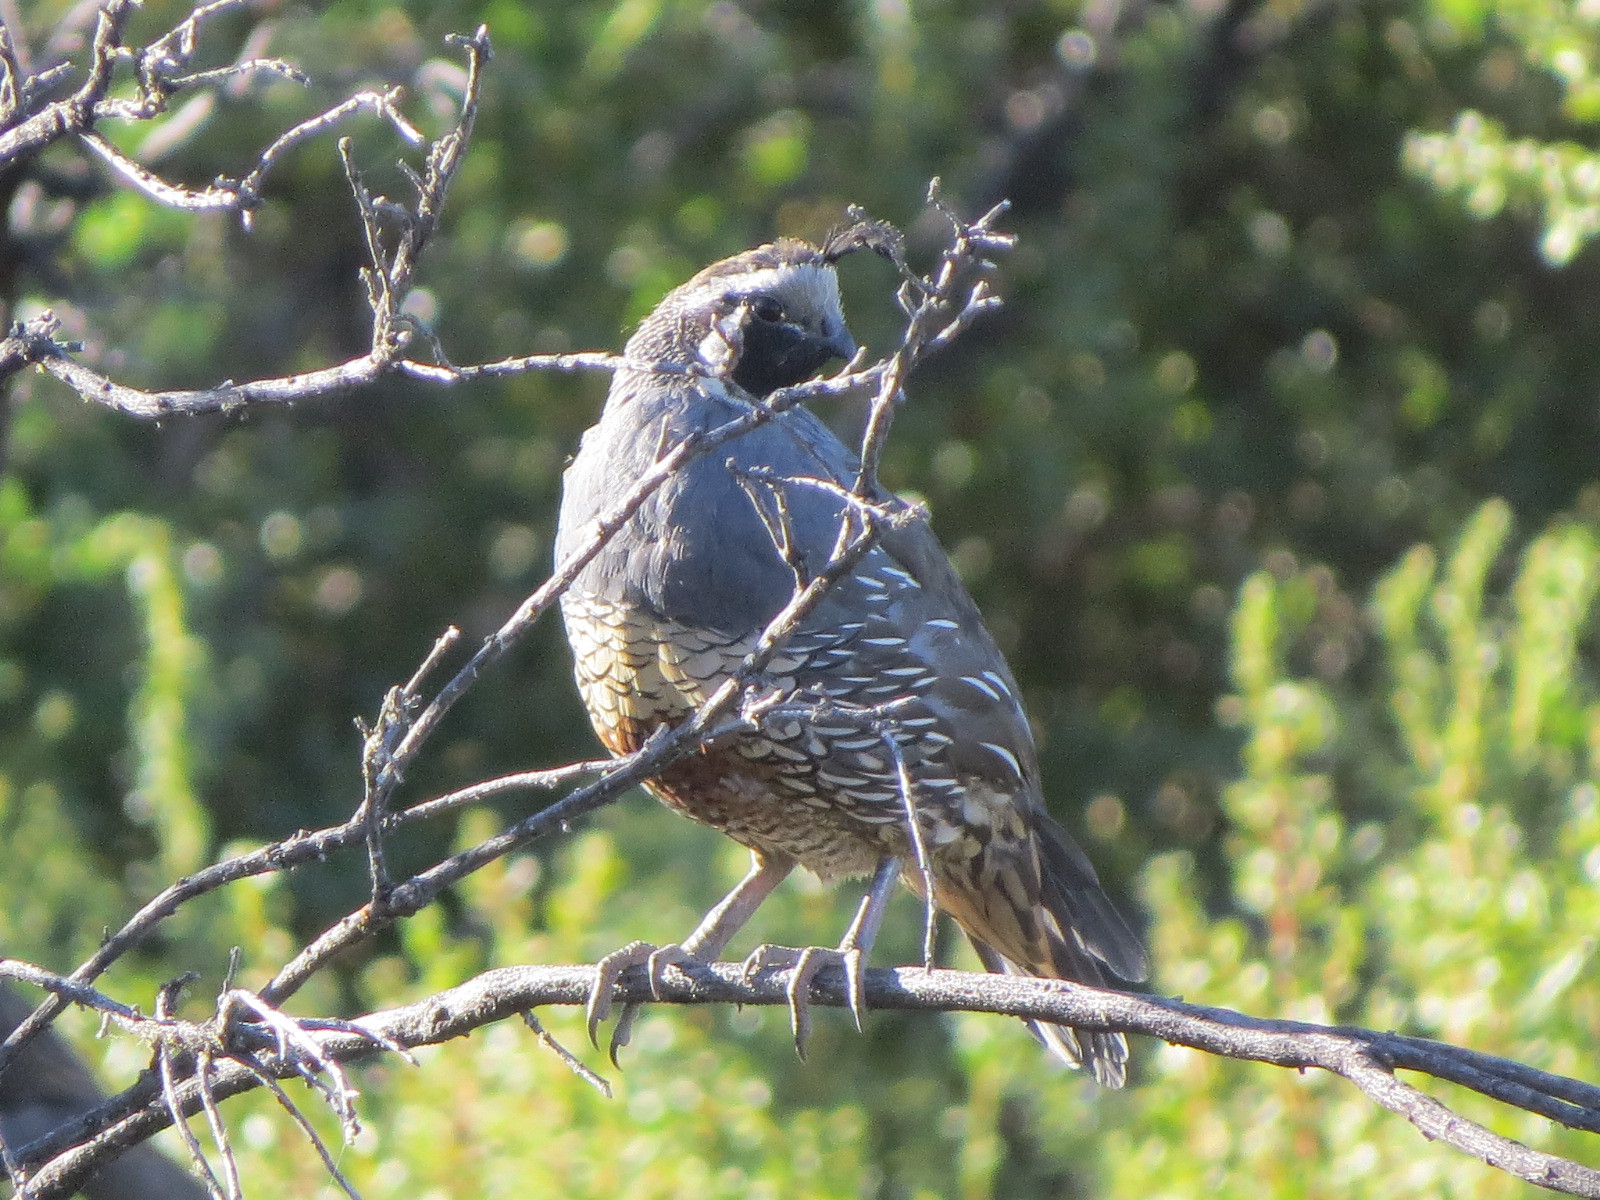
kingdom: Animalia
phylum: Chordata
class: Aves
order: Galliformes
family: Odontophoridae
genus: Callipepla
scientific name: Callipepla californica
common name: California quail
